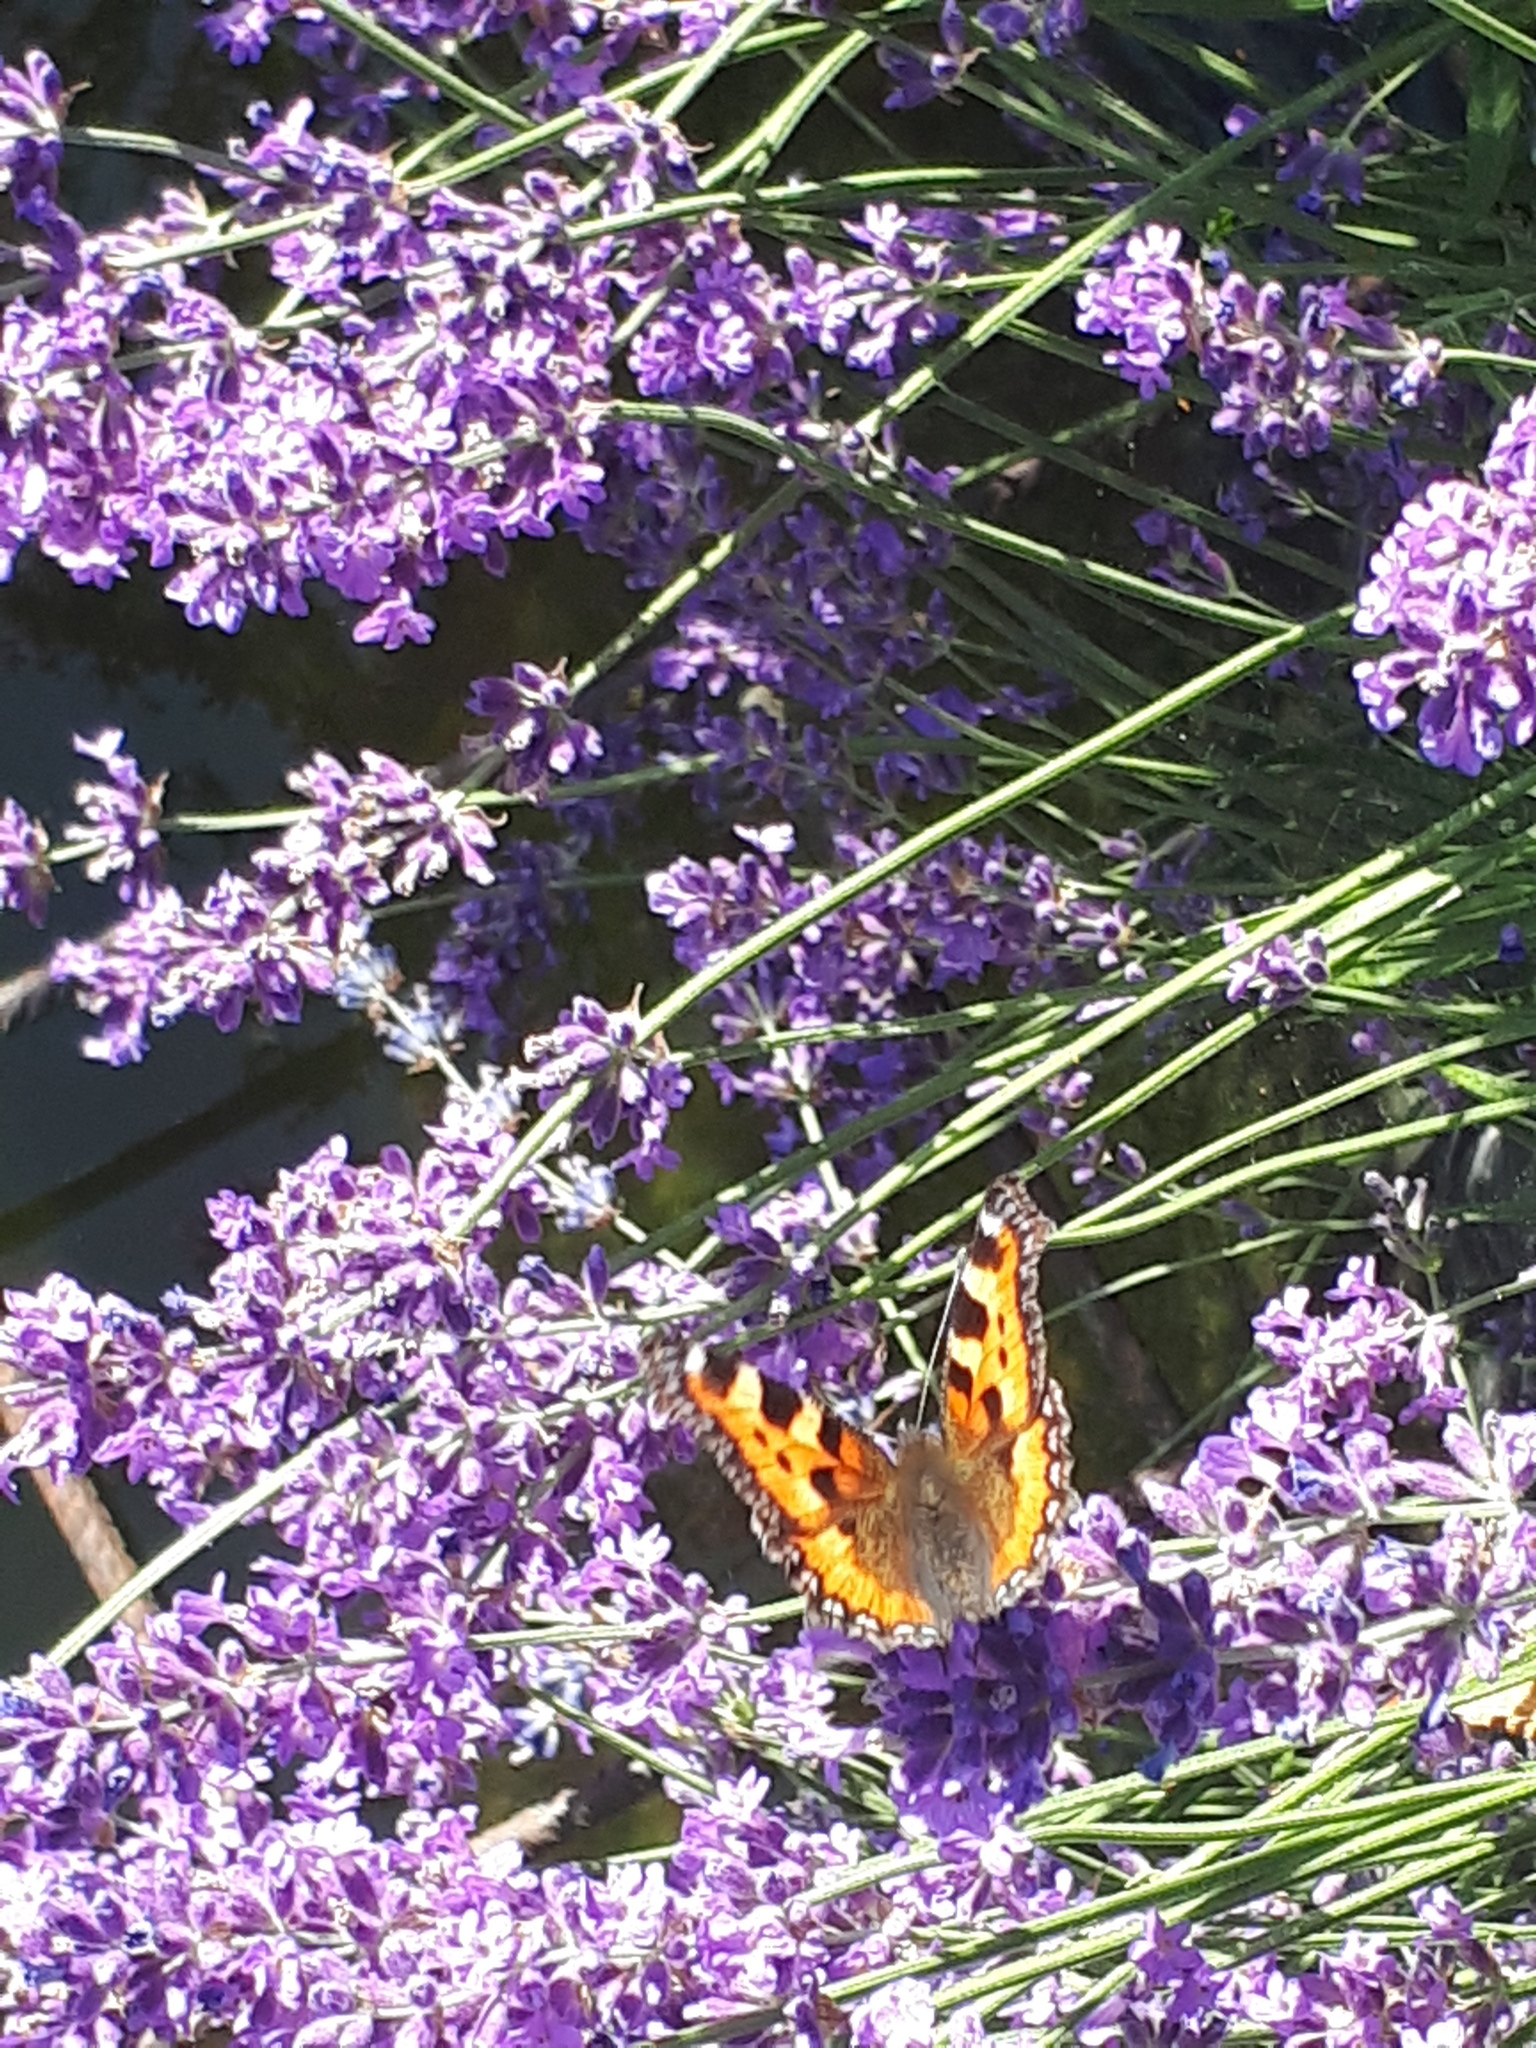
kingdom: Animalia
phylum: Arthropoda
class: Insecta
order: Lepidoptera
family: Nymphalidae
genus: Aglais
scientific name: Aglais urticae
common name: Small tortoiseshell
